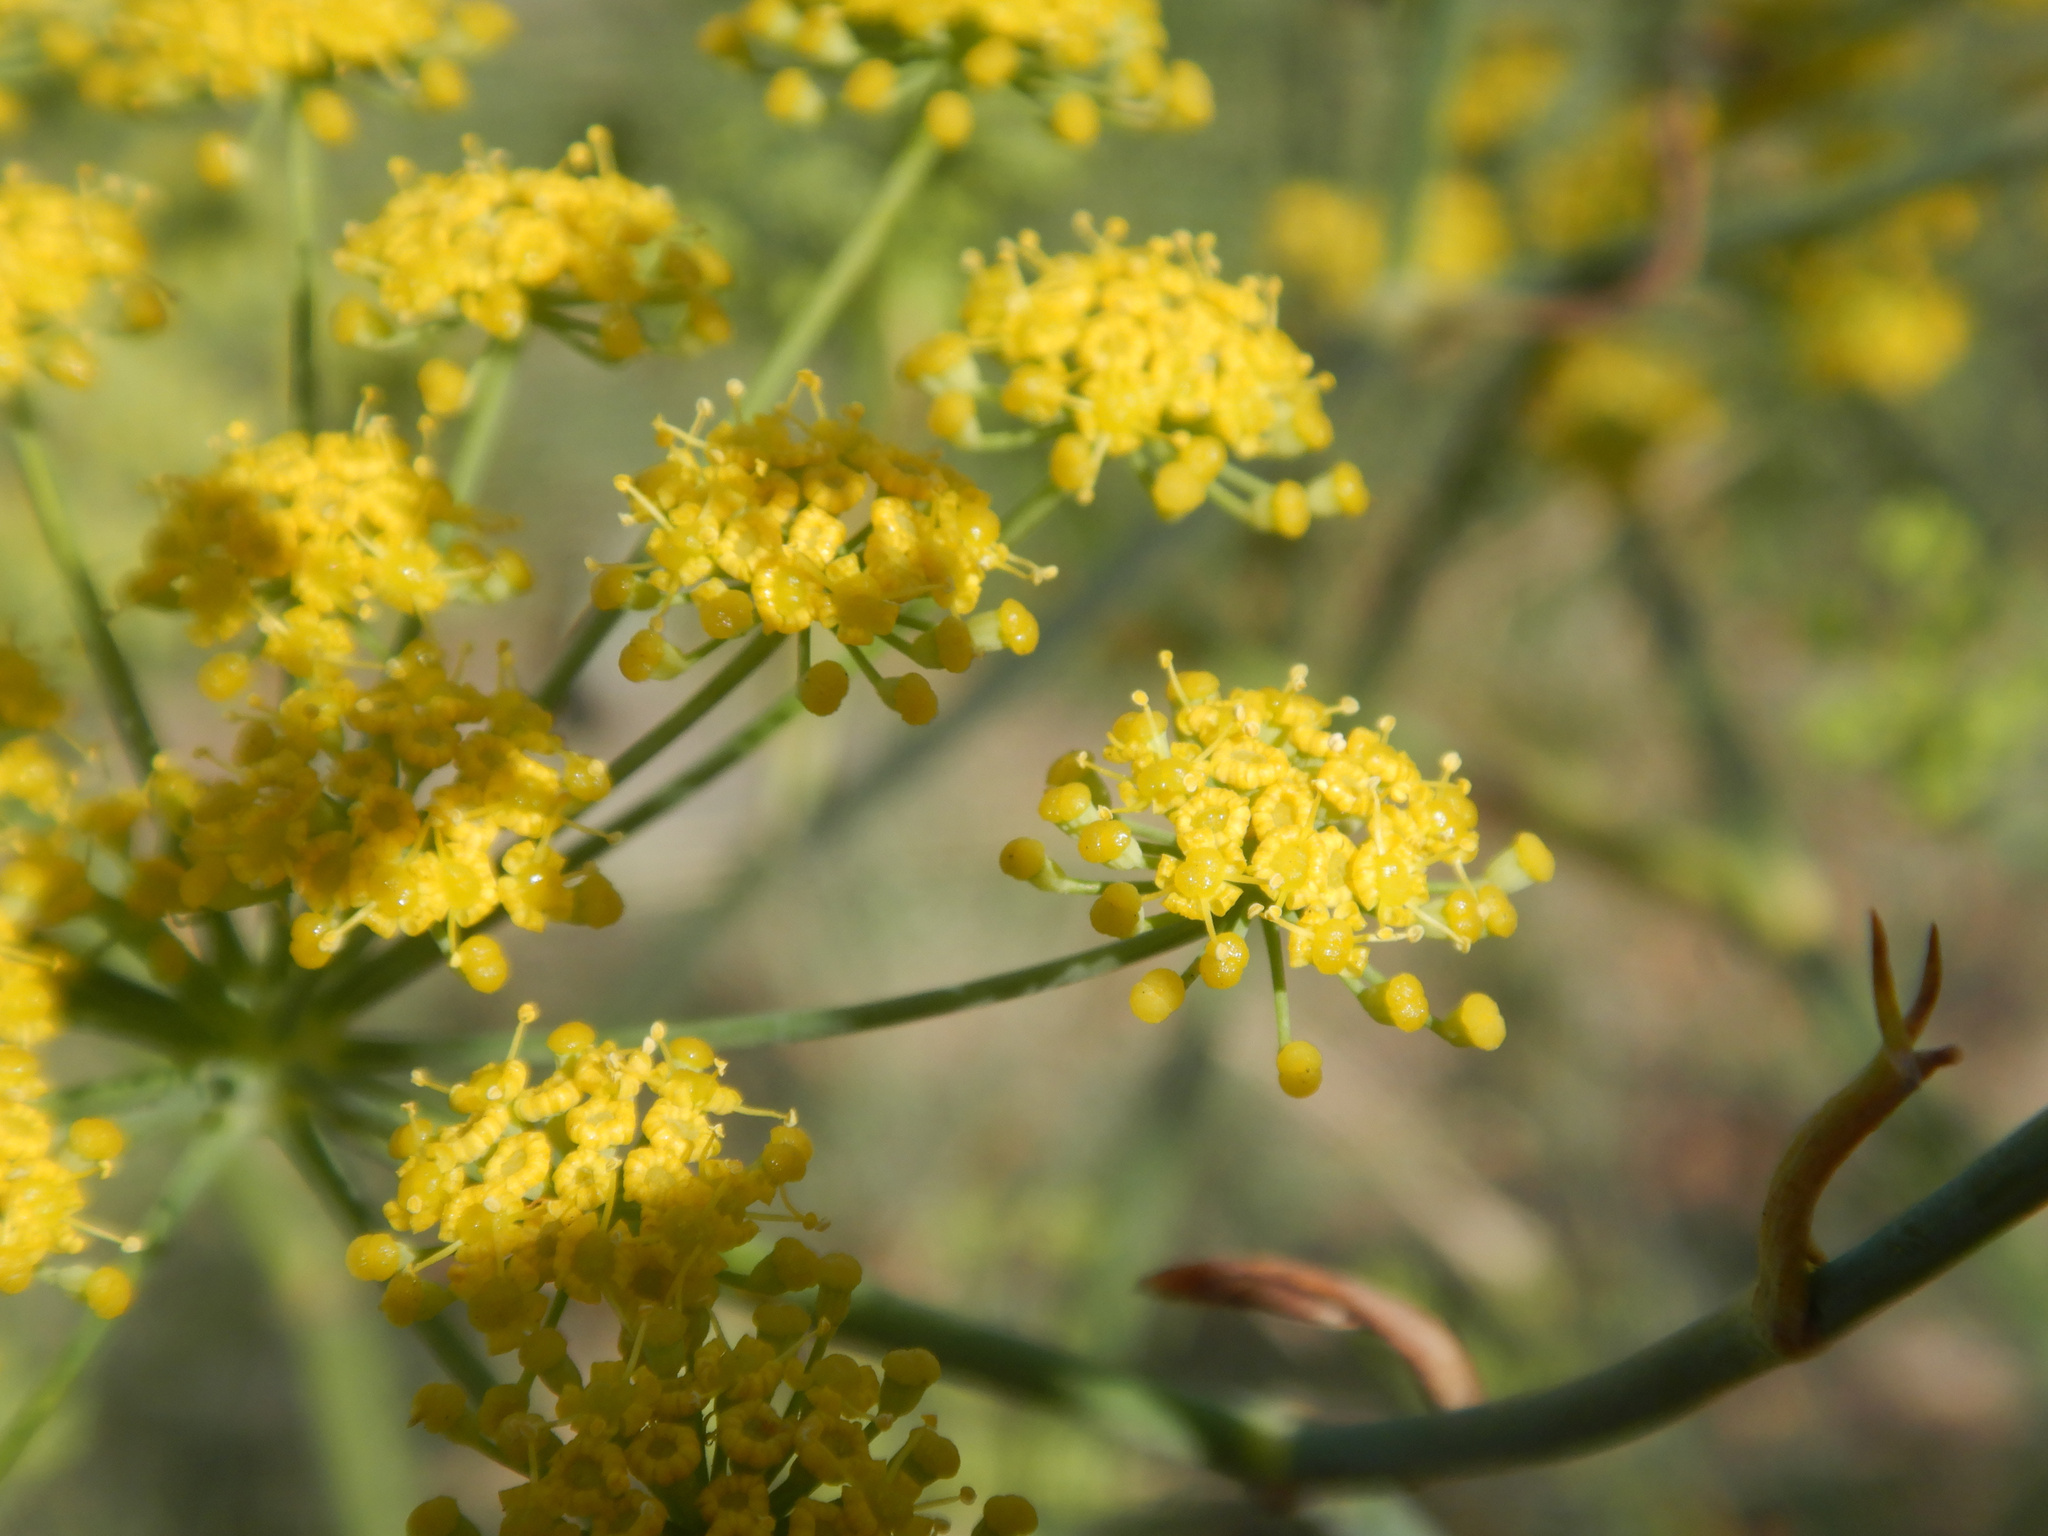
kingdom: Plantae
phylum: Tracheophyta
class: Magnoliopsida
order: Apiales
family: Apiaceae
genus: Foeniculum
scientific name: Foeniculum vulgare
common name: Fennel
